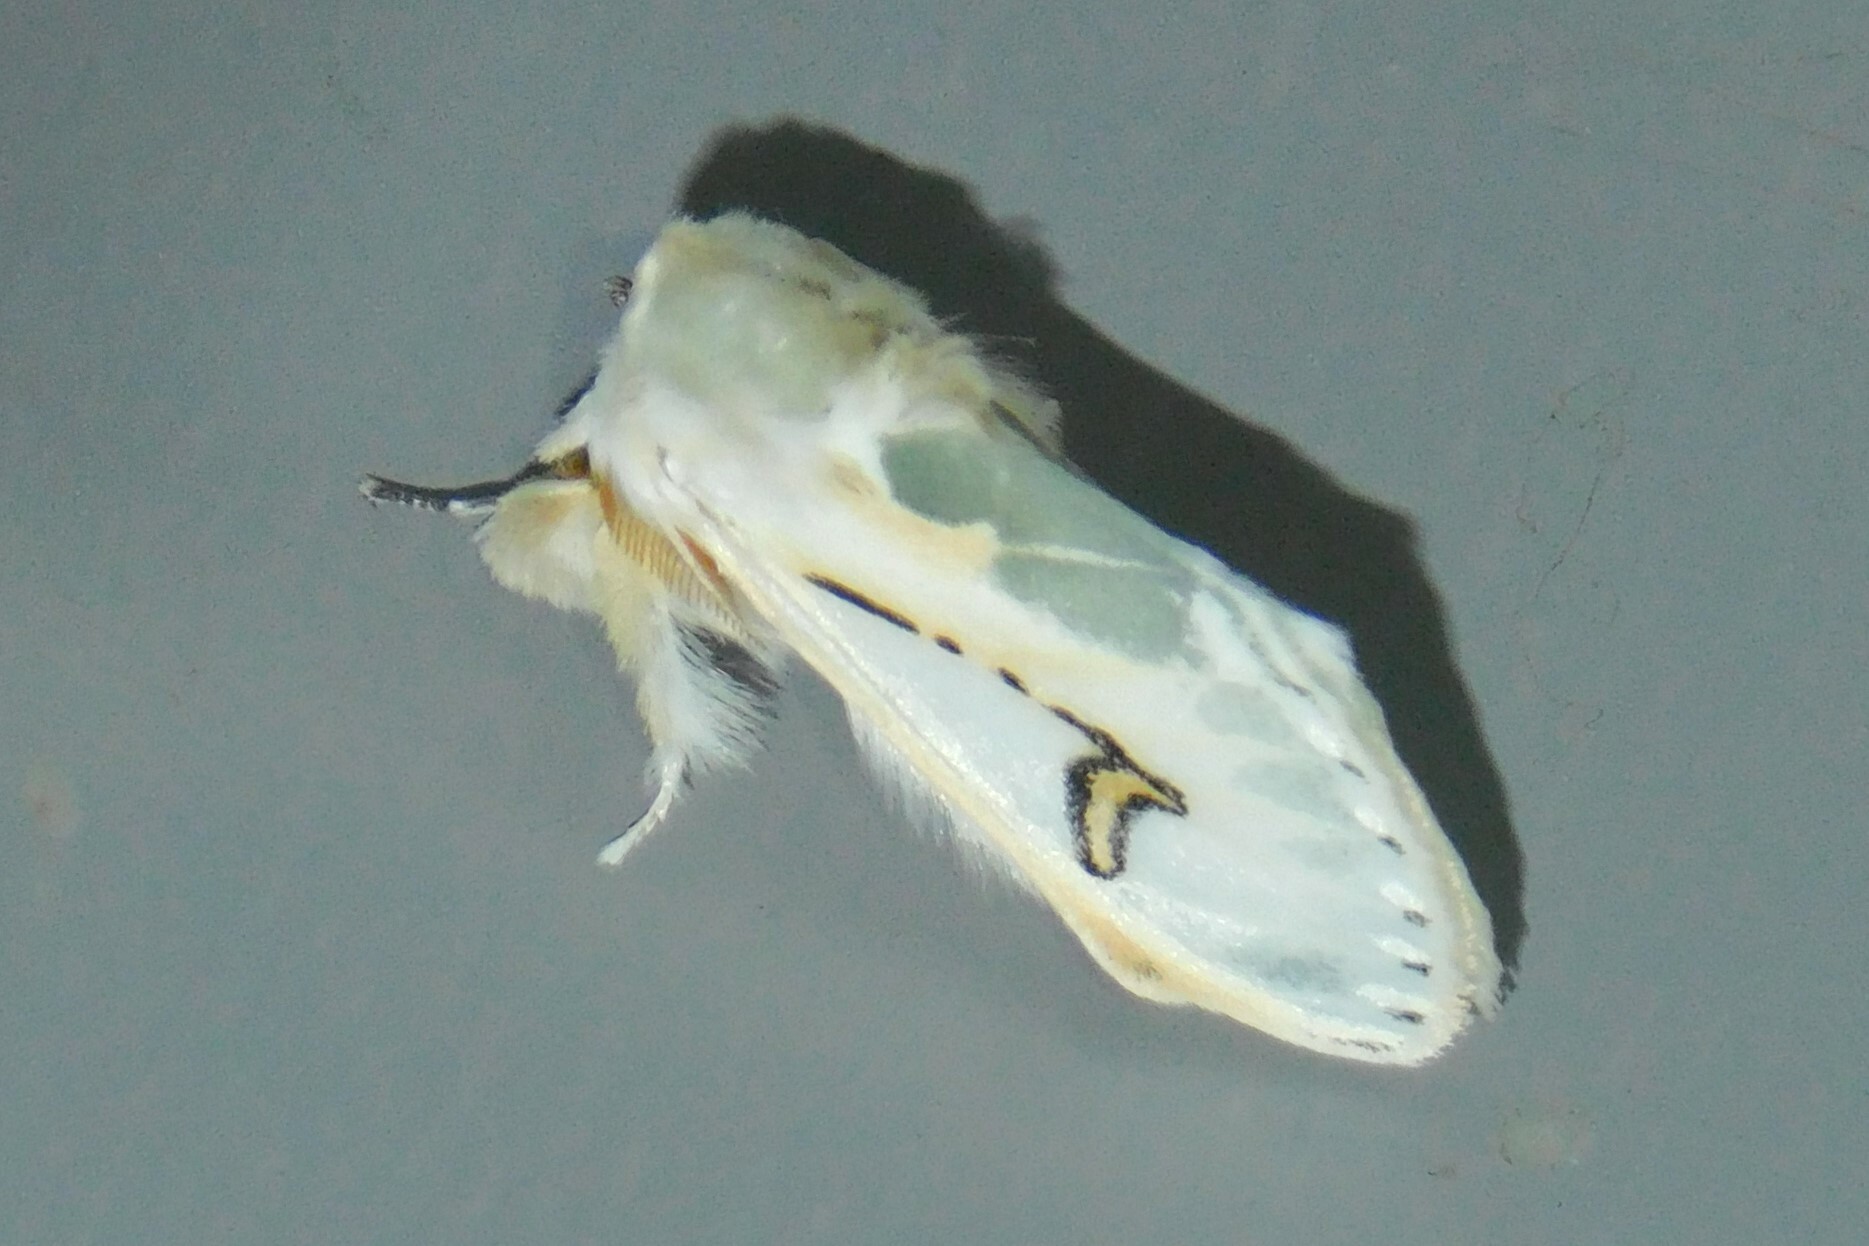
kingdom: Animalia
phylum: Arthropoda
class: Insecta
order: Lepidoptera
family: Erebidae
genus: Naroma
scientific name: Naroma varipes
